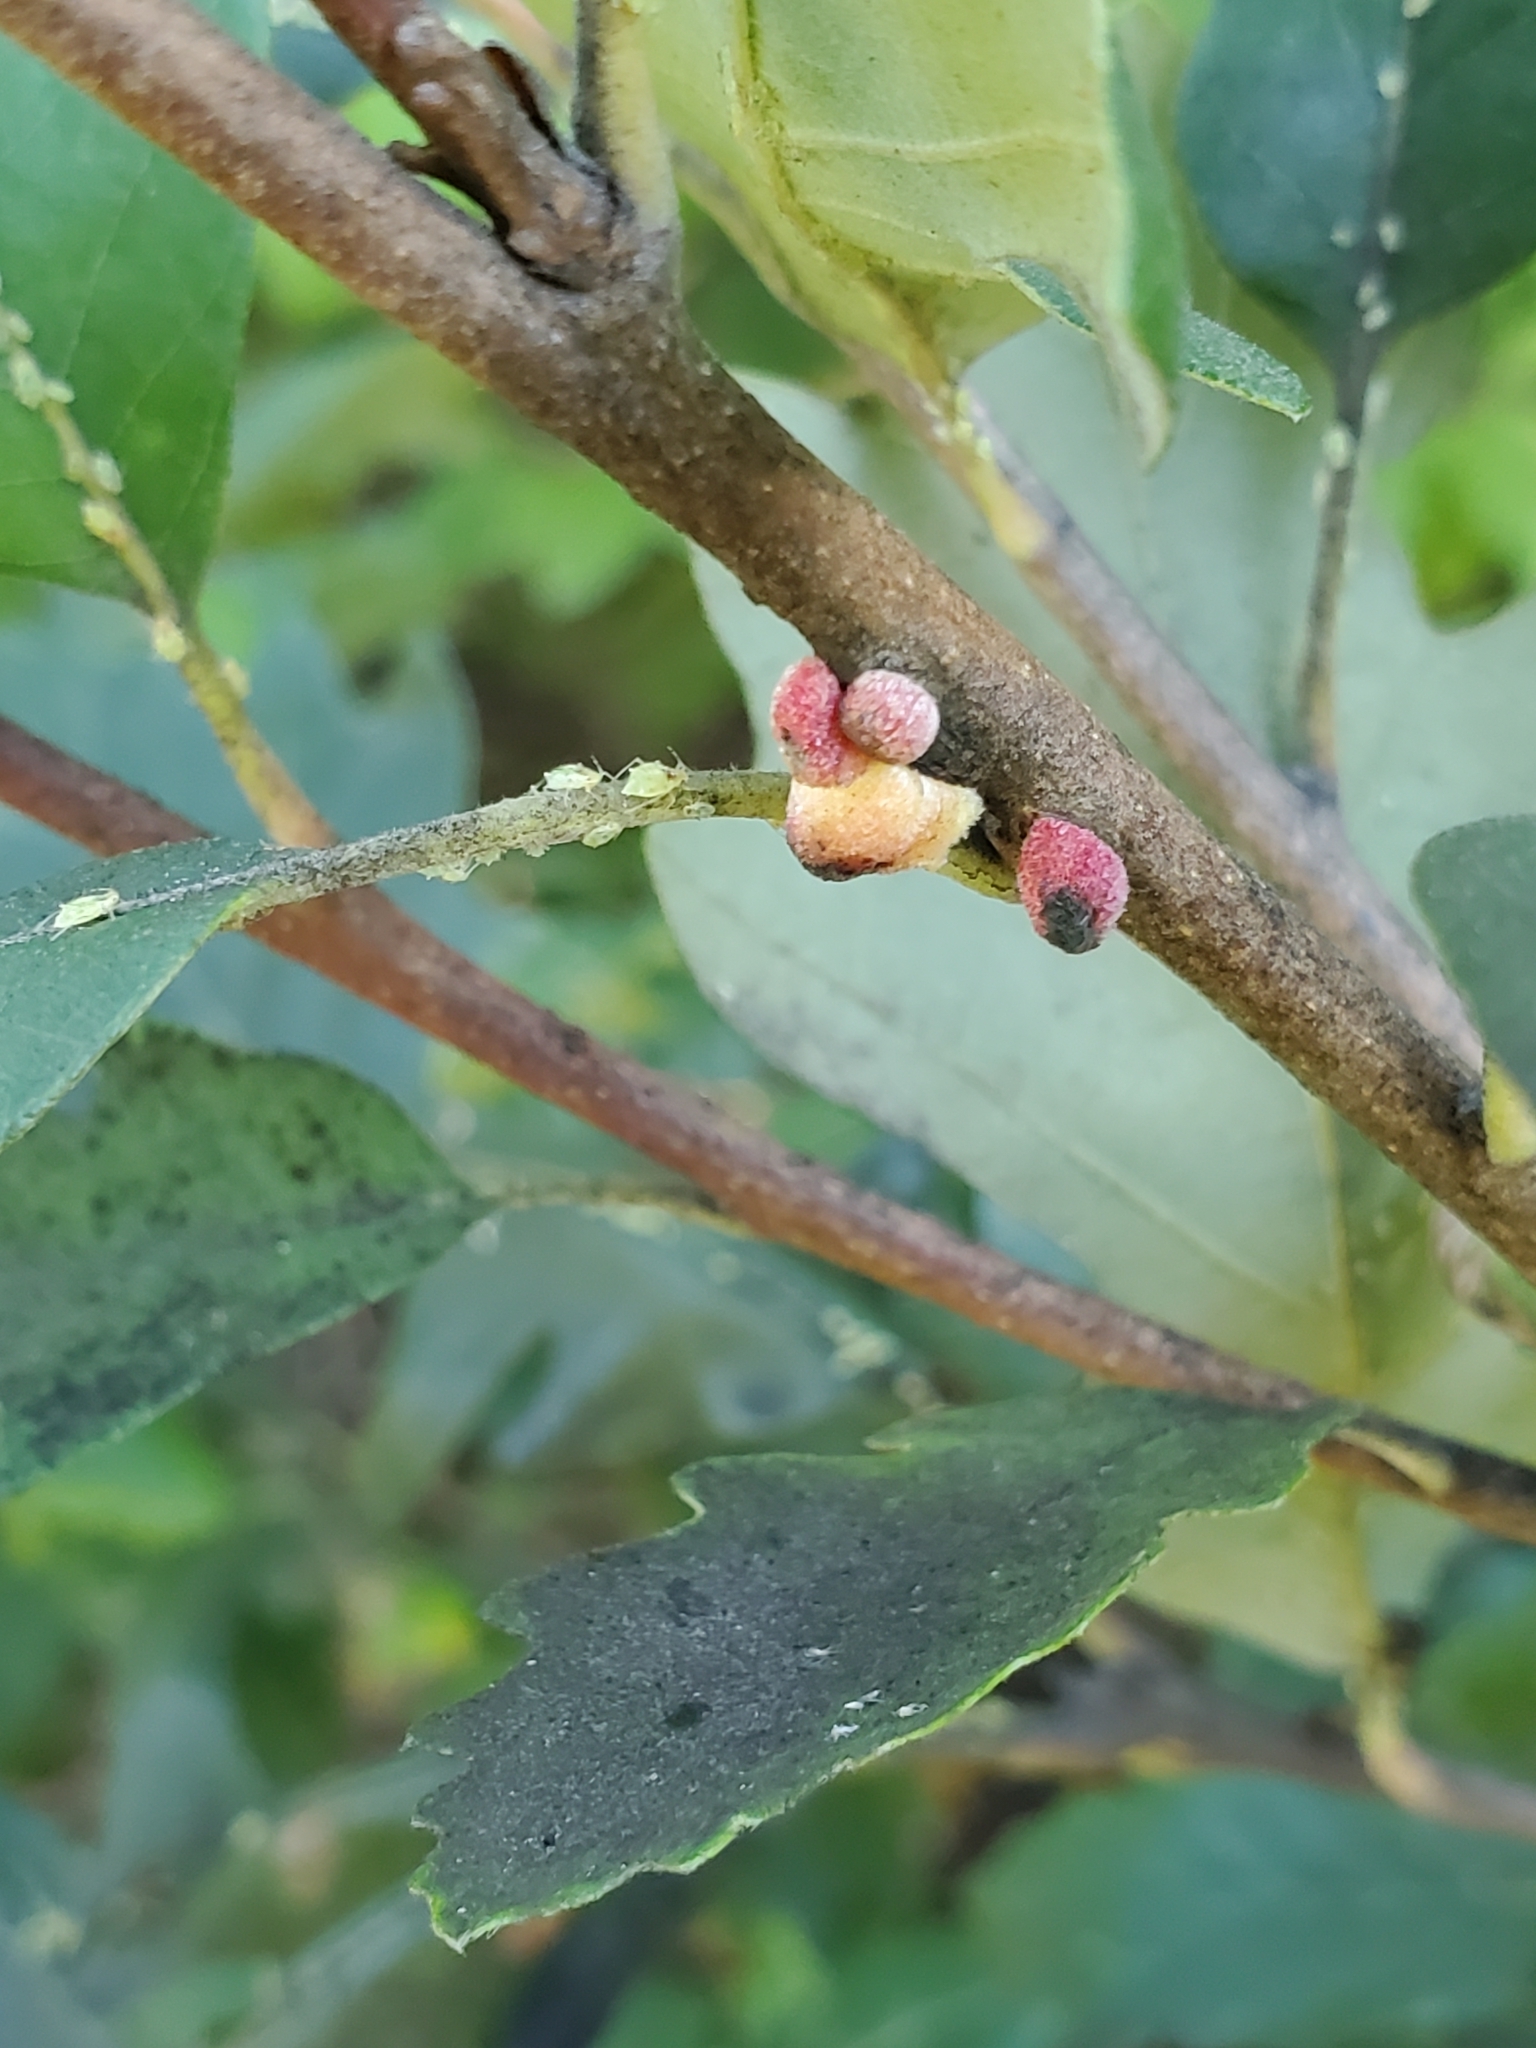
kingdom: Animalia
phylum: Arthropoda
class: Insecta
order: Hymenoptera
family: Cynipidae
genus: Disholcaspis
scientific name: Disholcaspis
